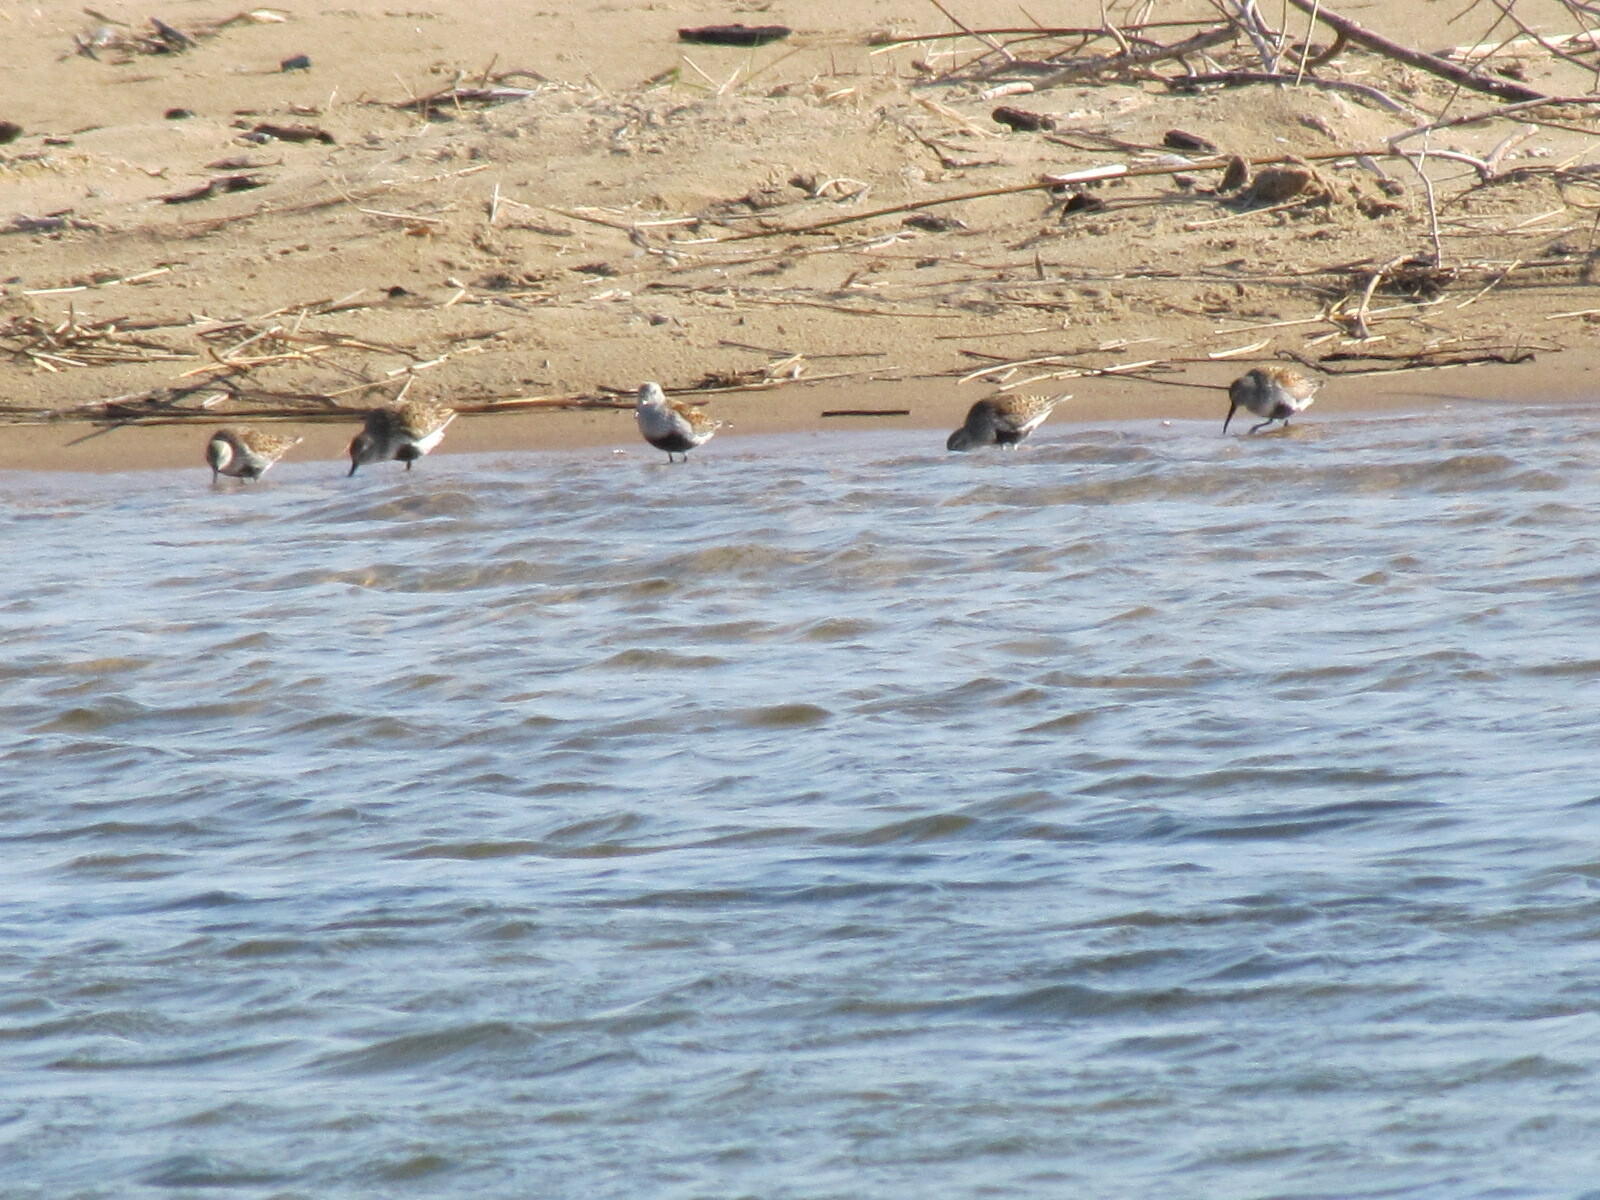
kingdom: Animalia
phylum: Chordata
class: Aves
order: Charadriiformes
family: Scolopacidae
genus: Calidris
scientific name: Calidris alpina
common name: Dunlin
